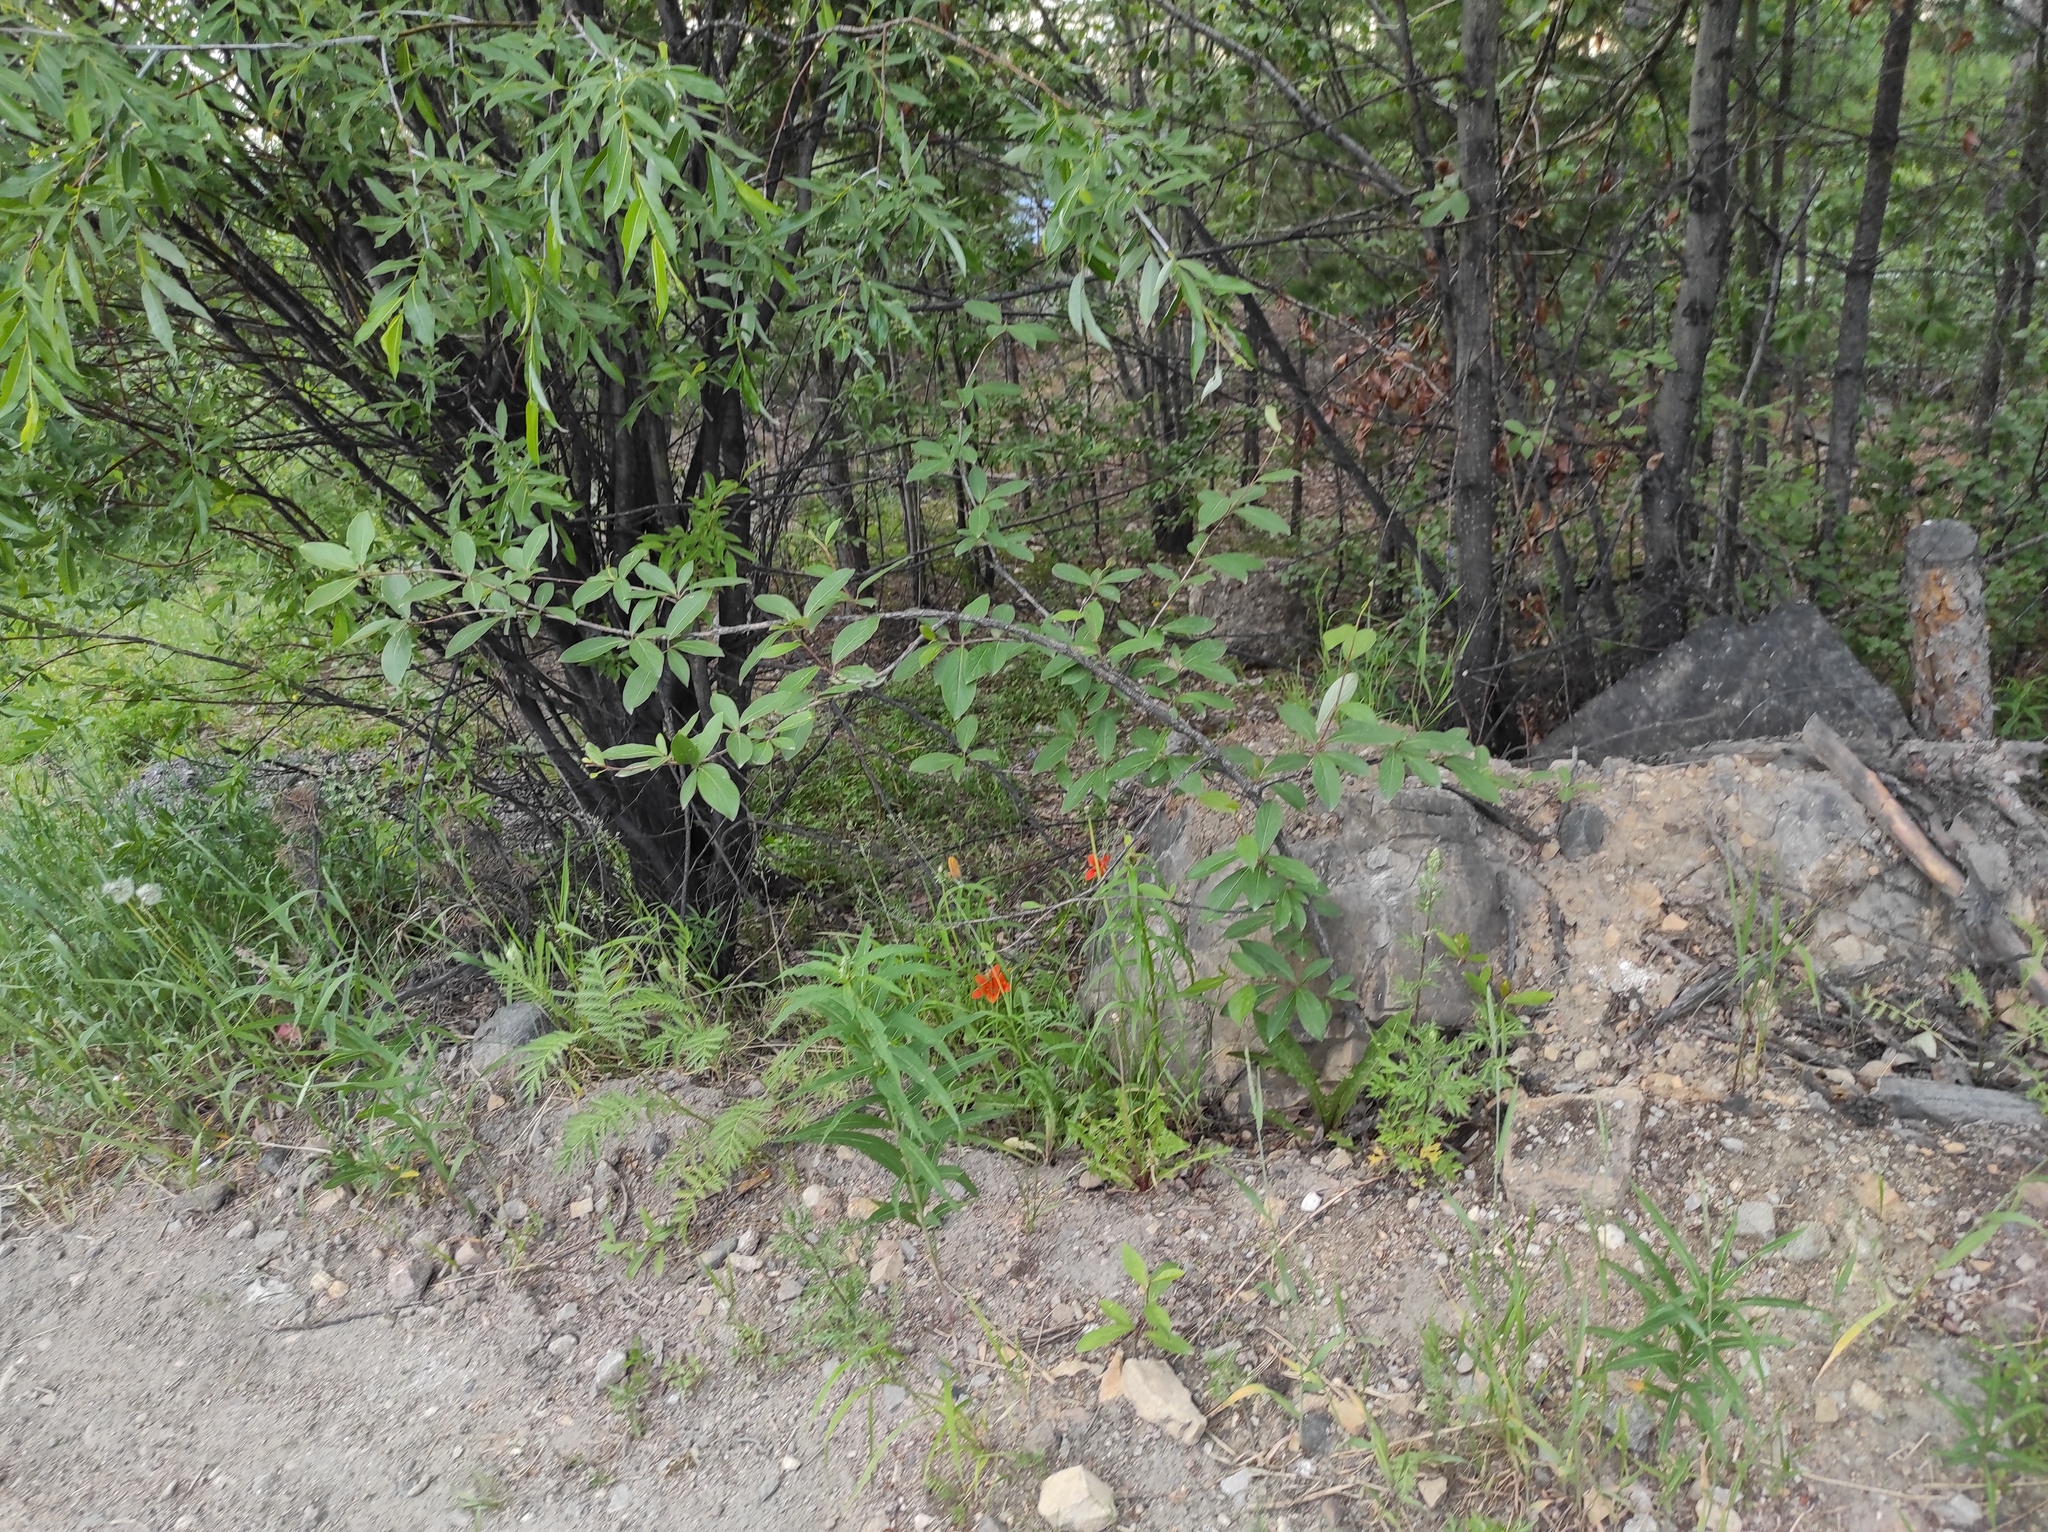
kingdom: Plantae
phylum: Tracheophyta
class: Magnoliopsida
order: Malpighiales
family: Salicaceae
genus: Salix
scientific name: Salix rorida
